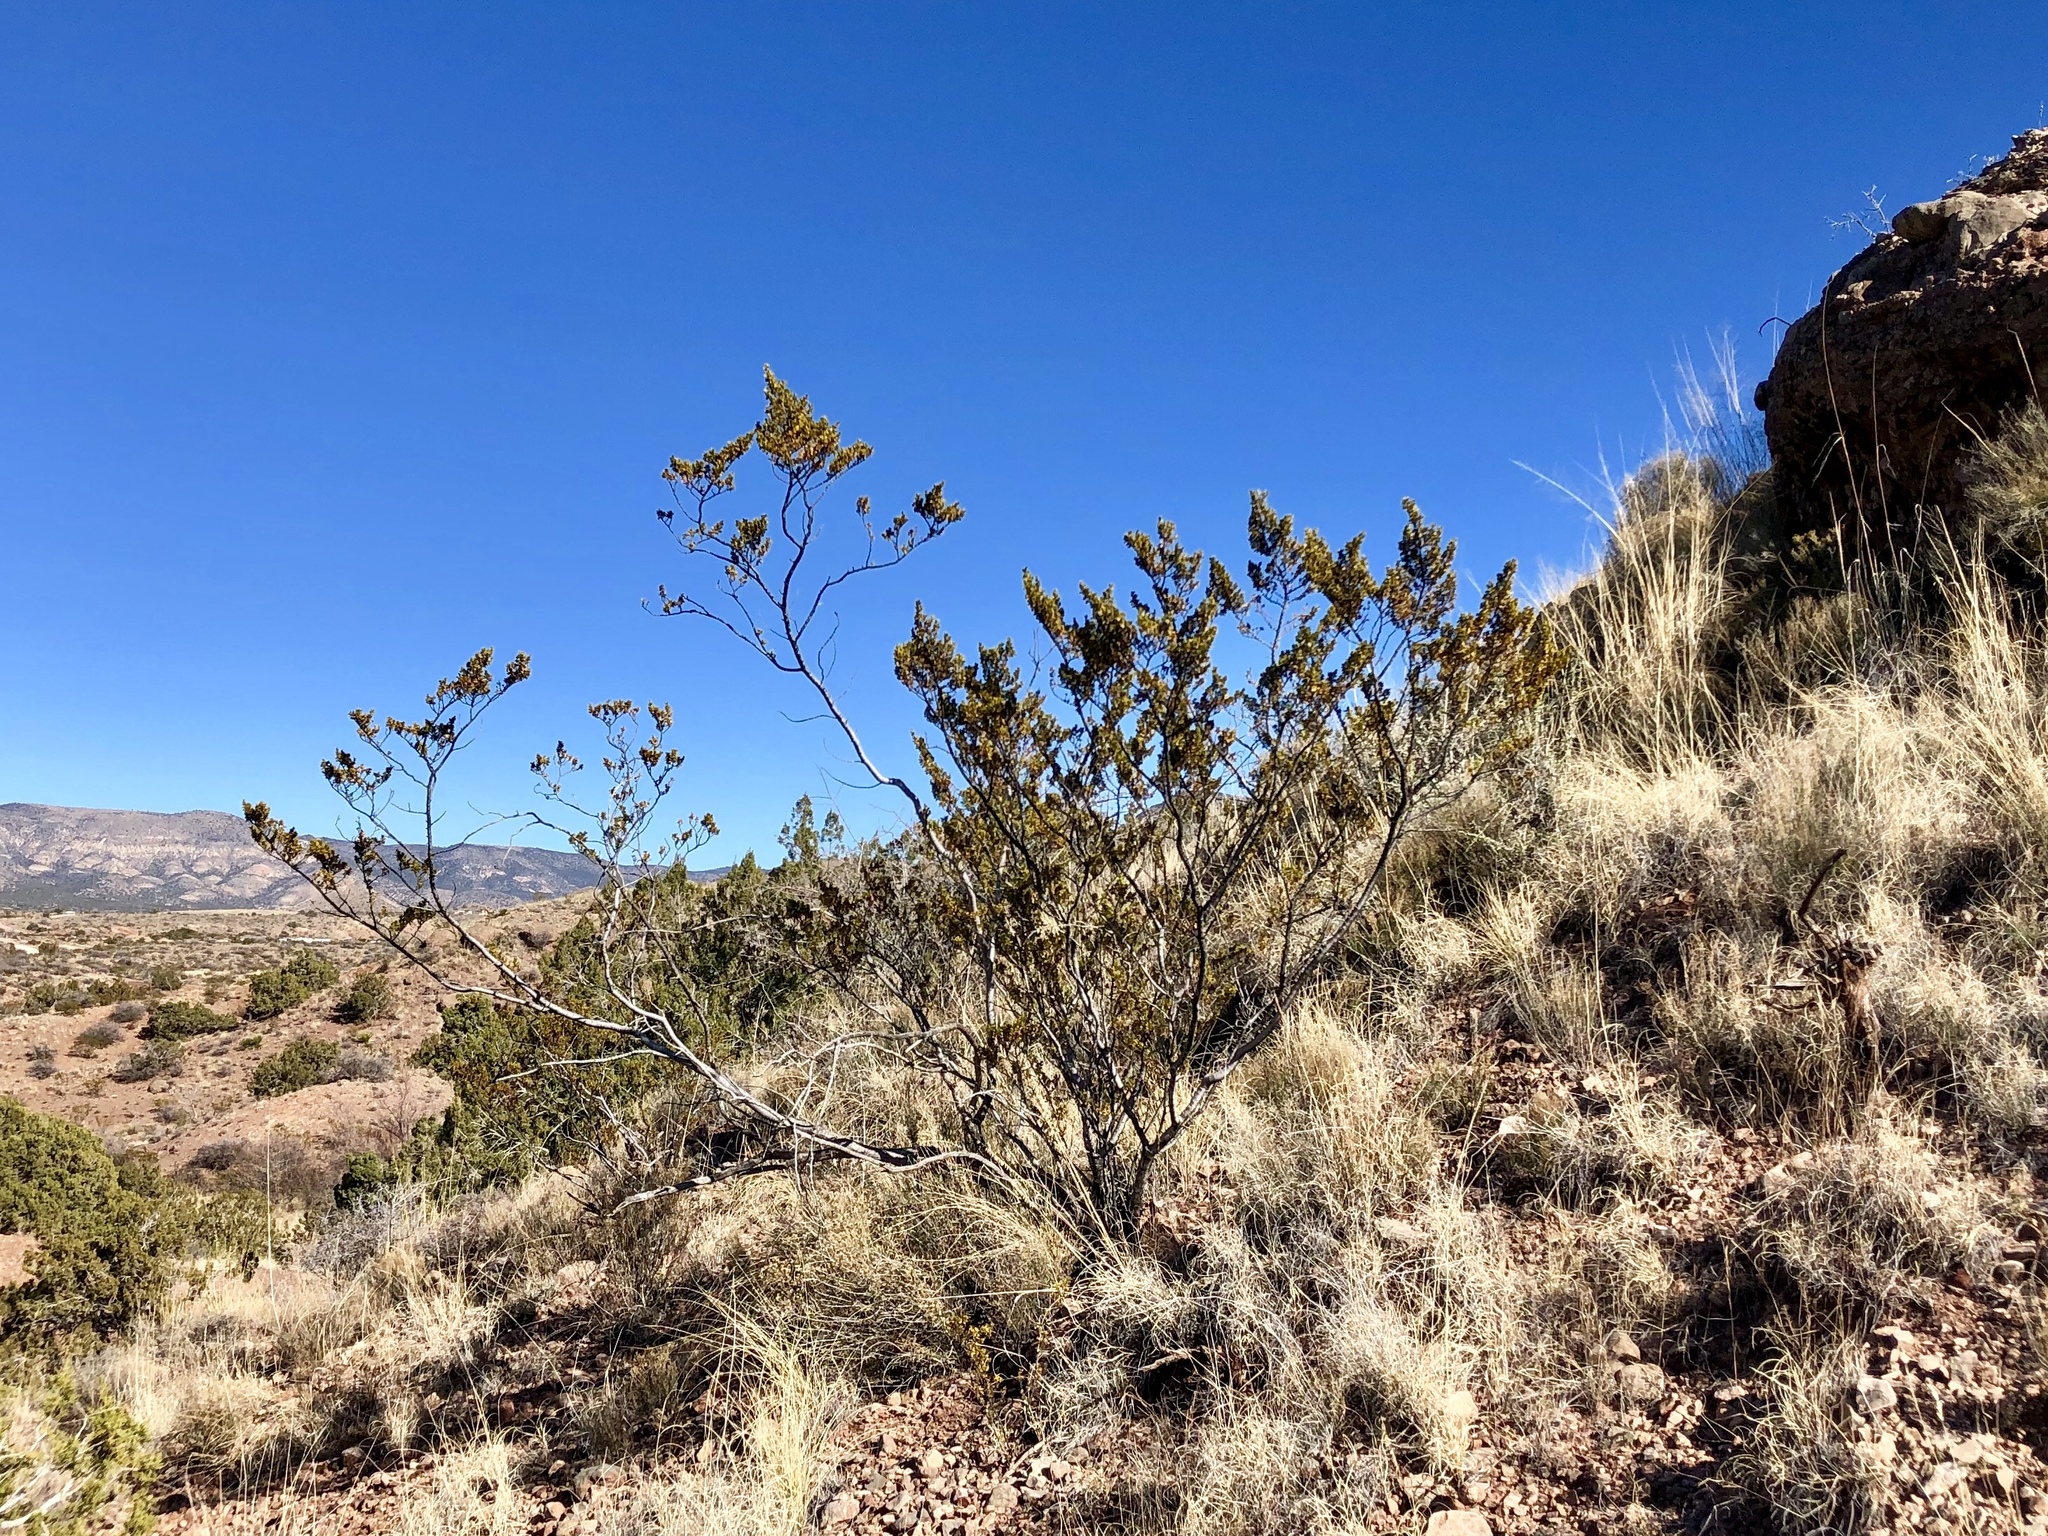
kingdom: Plantae
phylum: Tracheophyta
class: Magnoliopsida
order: Zygophyllales
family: Zygophyllaceae
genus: Larrea
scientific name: Larrea tridentata
